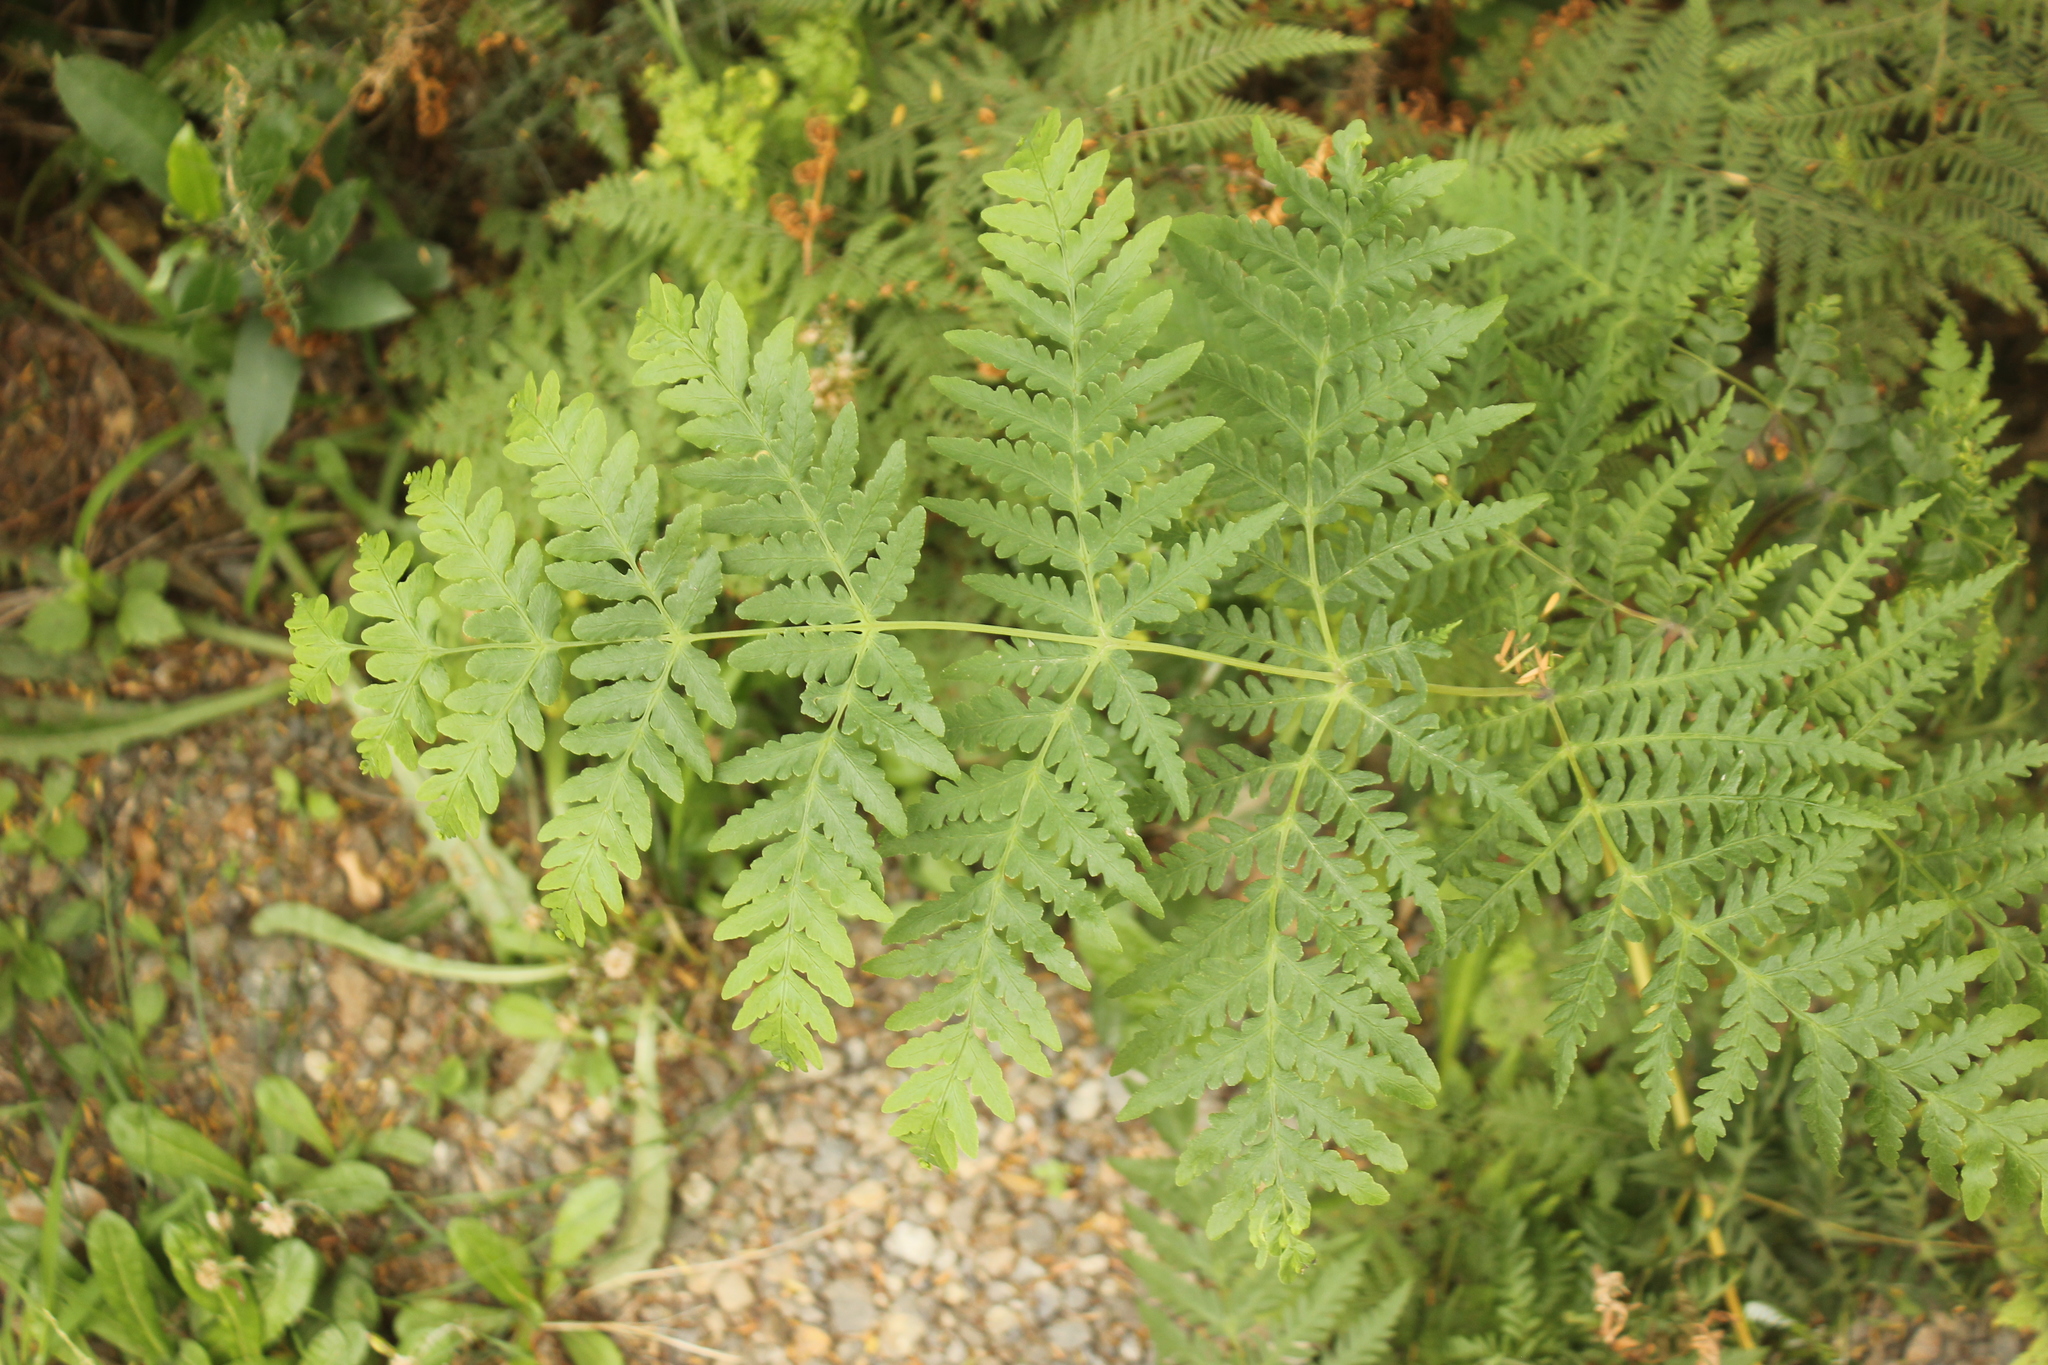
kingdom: Plantae
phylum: Tracheophyta
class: Polypodiopsida
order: Polypodiales
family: Dennstaedtiaceae
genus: Histiopteris
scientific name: Histiopteris incisa
